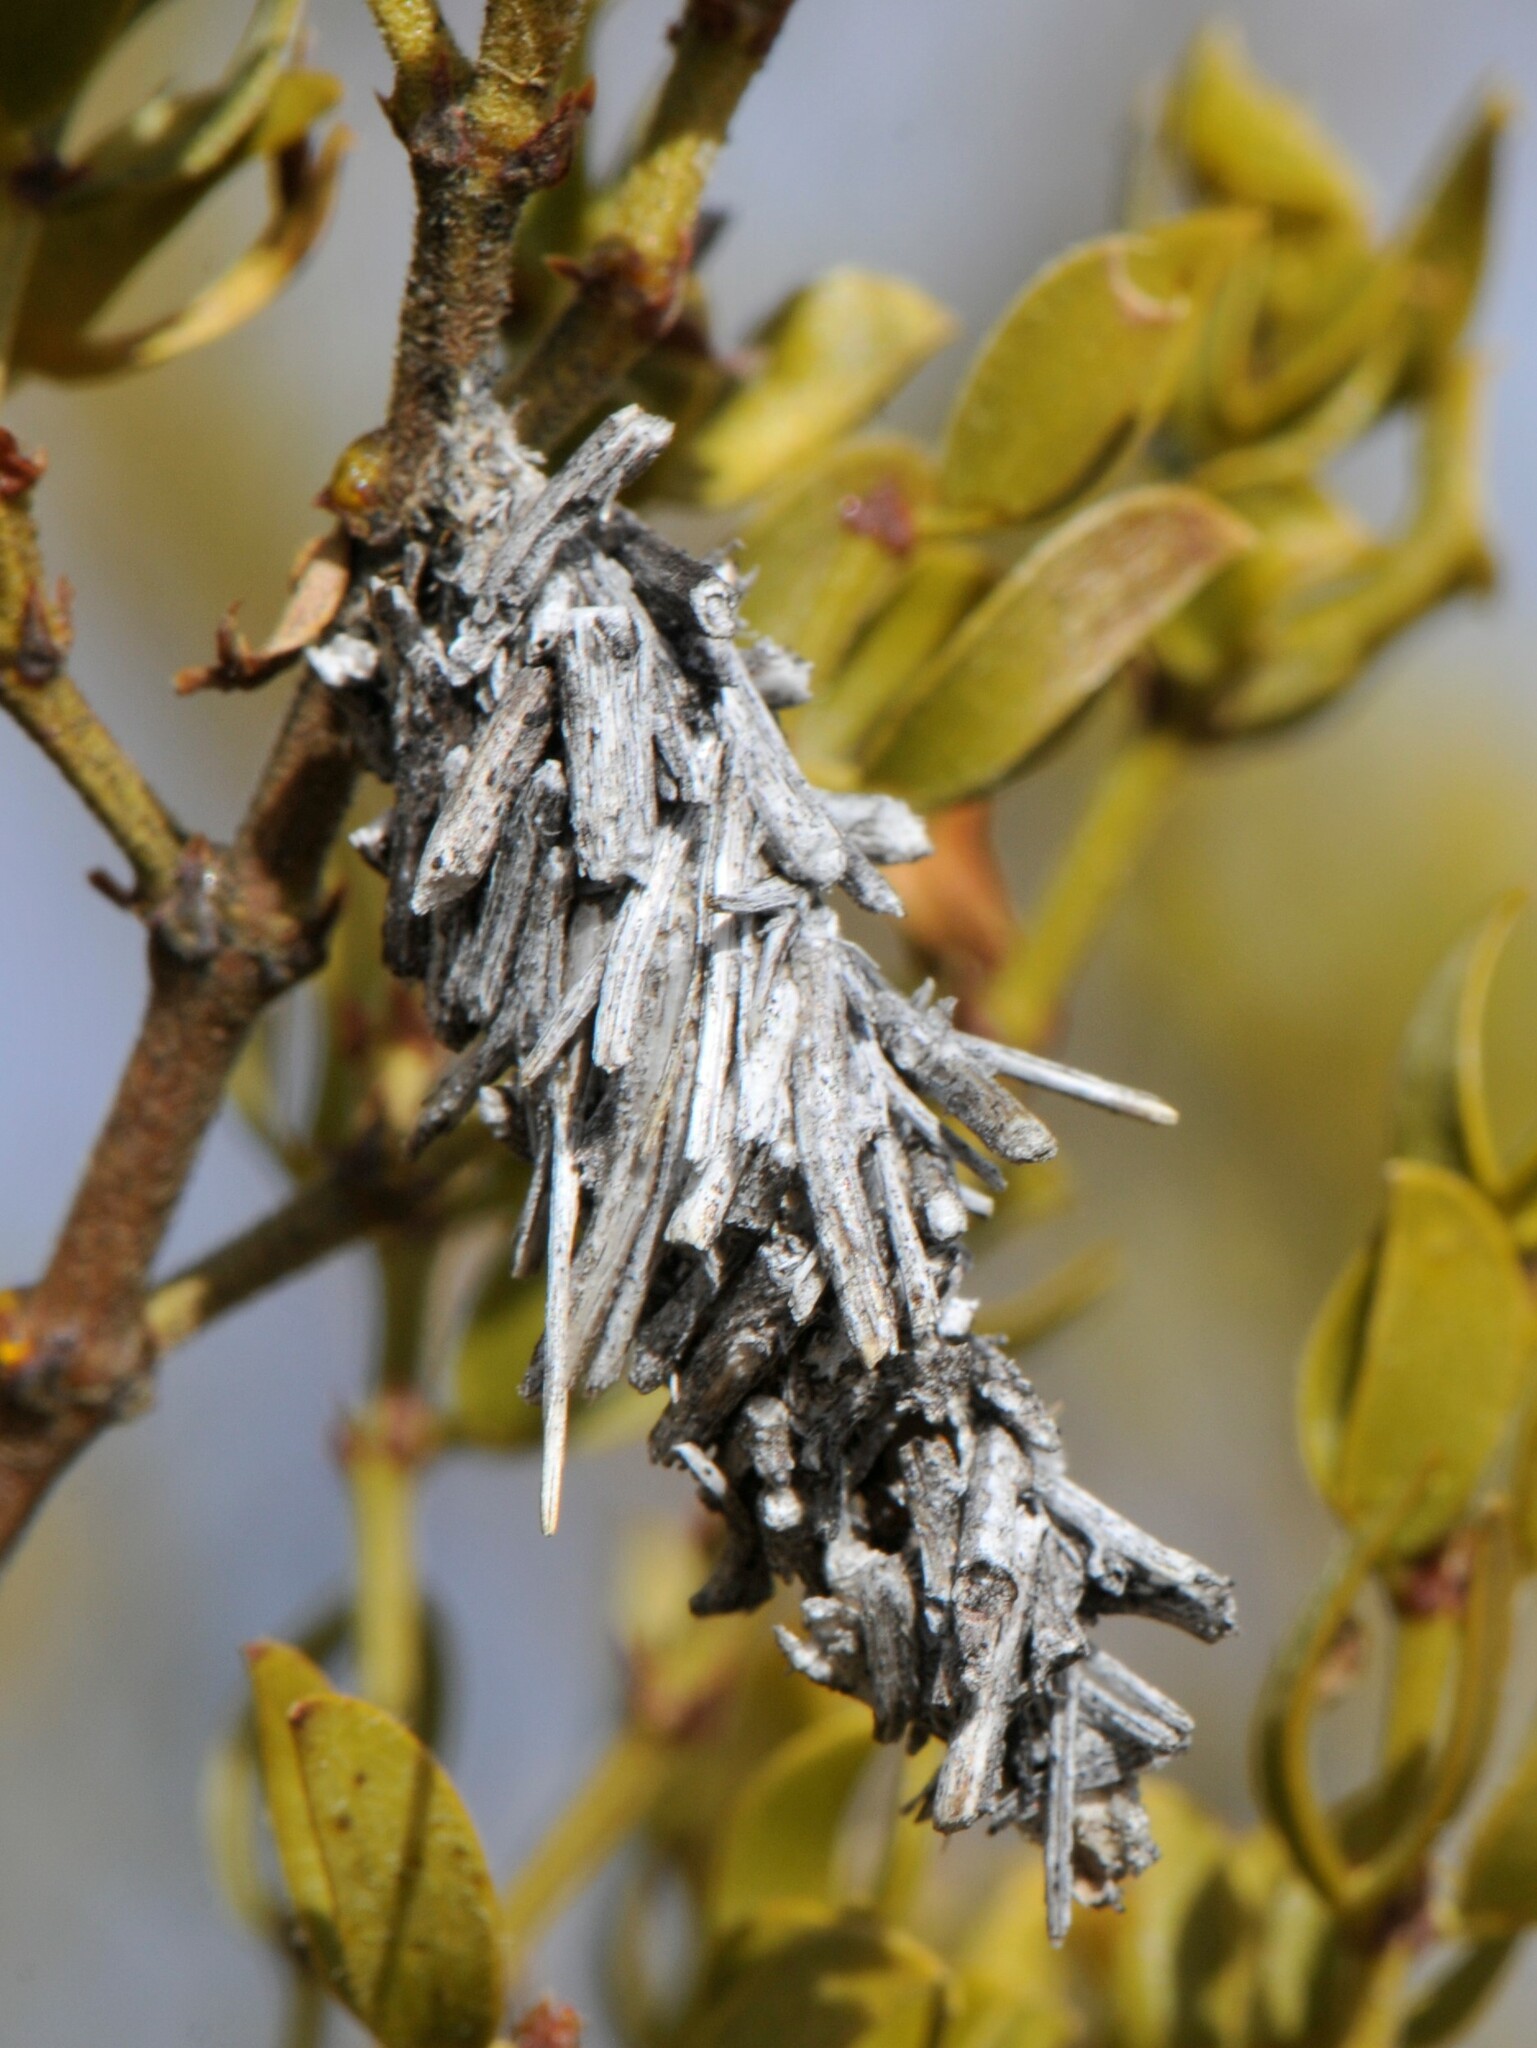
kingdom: Animalia
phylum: Arthropoda
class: Insecta
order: Lepidoptera
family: Psychidae
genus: Thyridopteryx
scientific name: Thyridopteryx meadii
